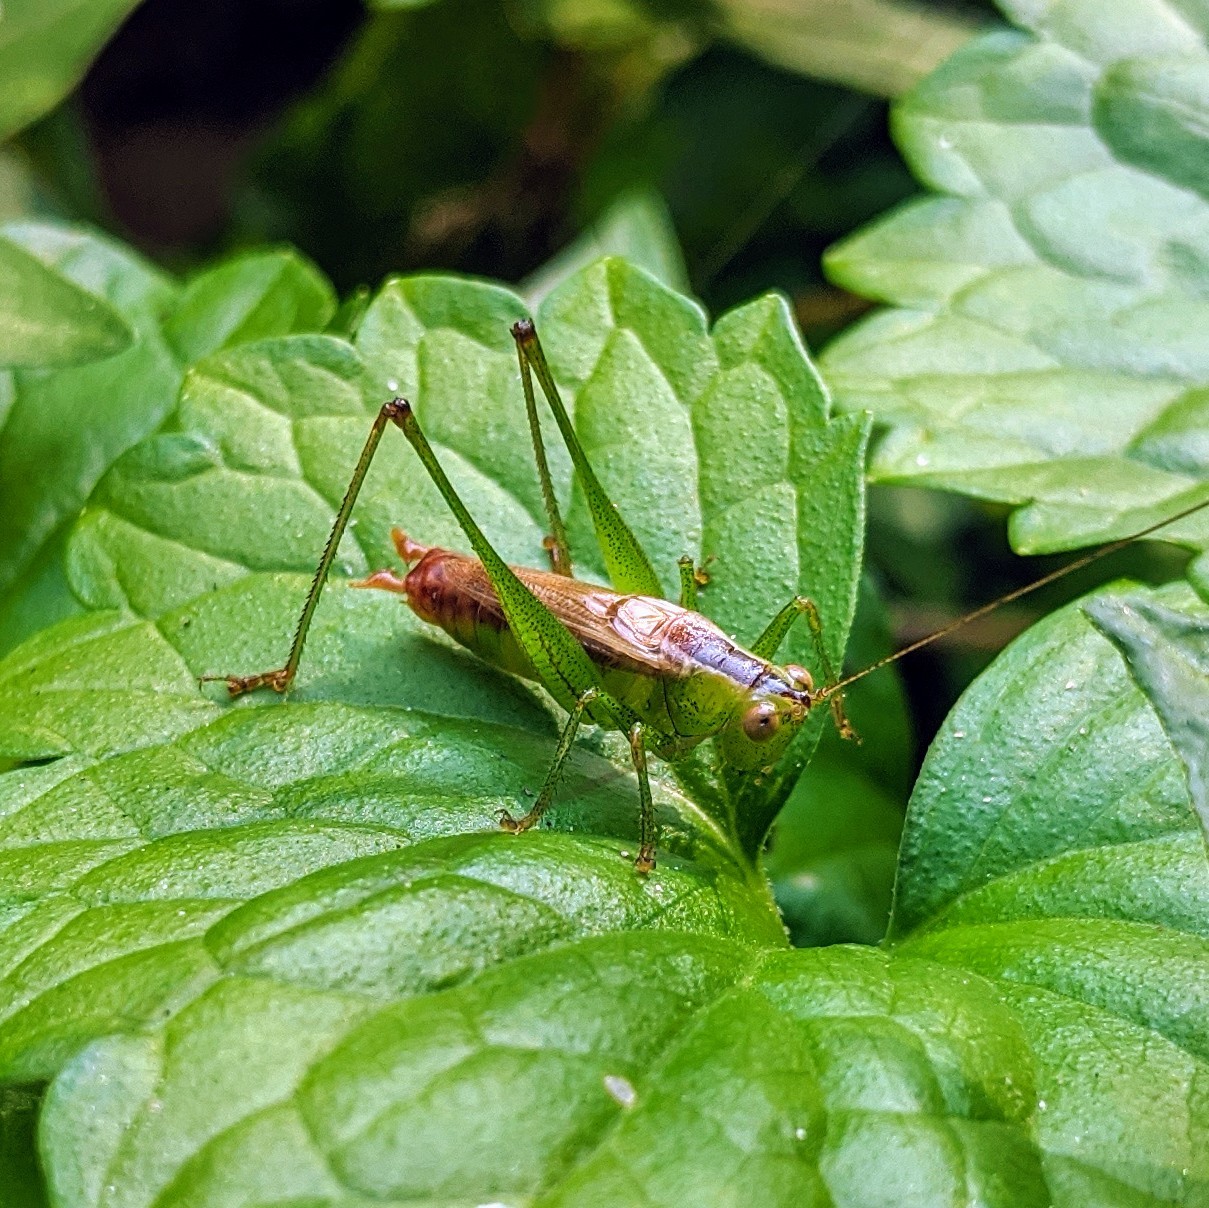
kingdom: Animalia
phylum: Arthropoda
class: Insecta
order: Orthoptera
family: Tettigoniidae
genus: Conocephalus
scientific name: Conocephalus brevipennis
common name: Short-winged meadow katydid
